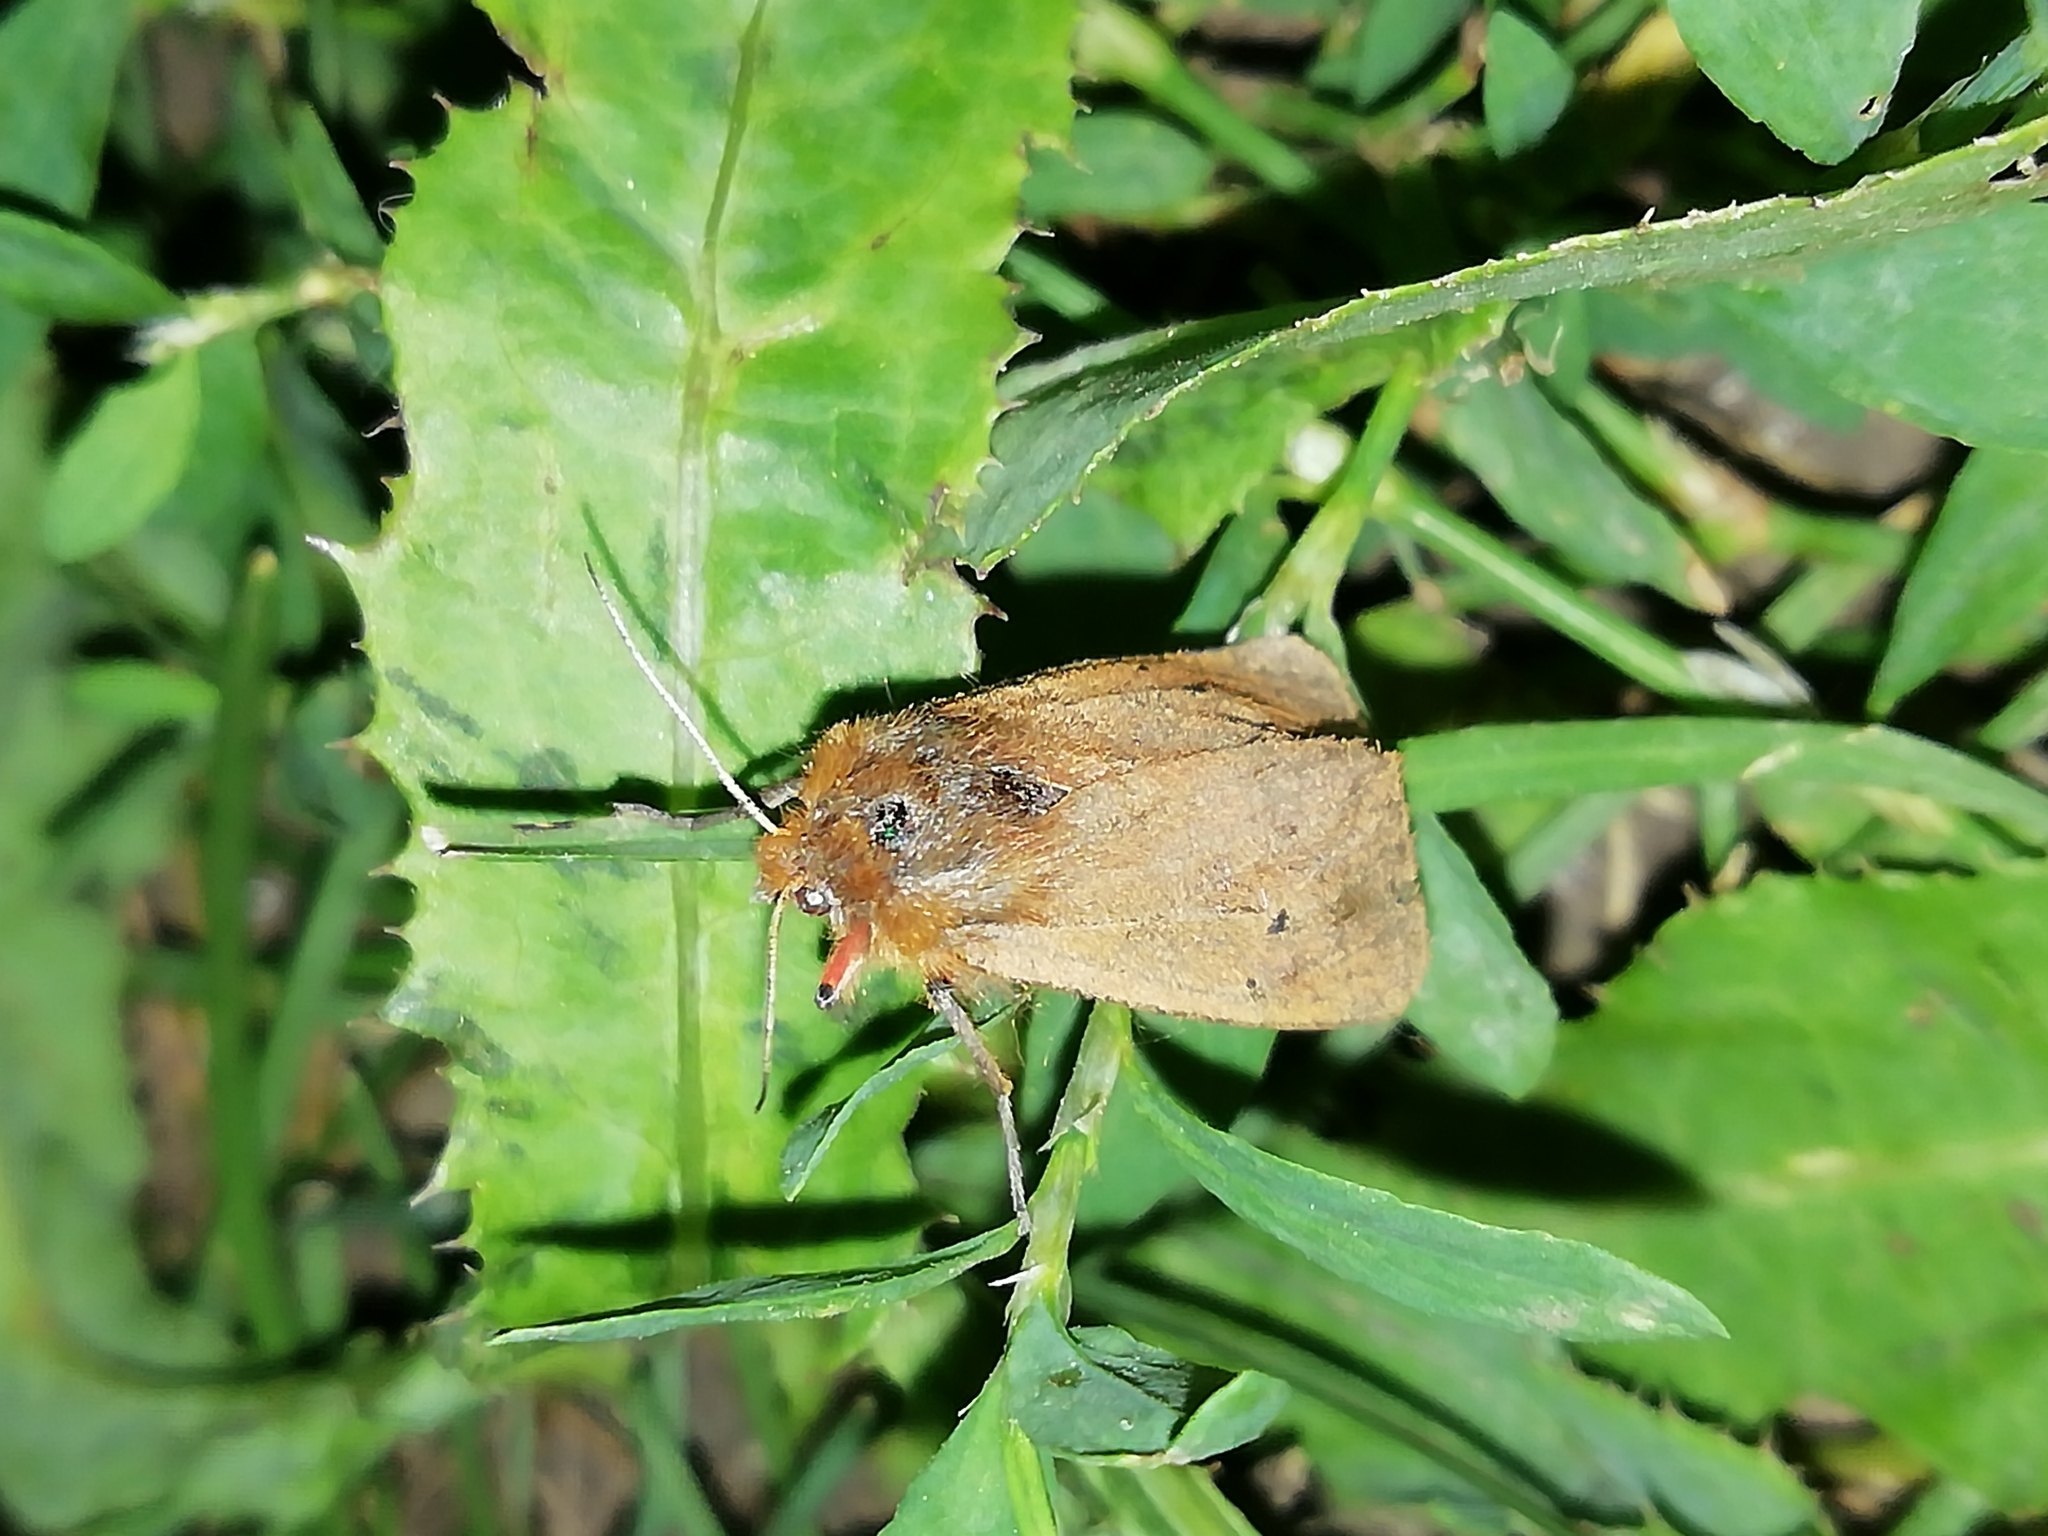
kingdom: Animalia
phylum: Arthropoda
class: Insecta
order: Lepidoptera
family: Erebidae
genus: Phragmatobia
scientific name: Phragmatobia fuliginosa
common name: Ruby tiger
